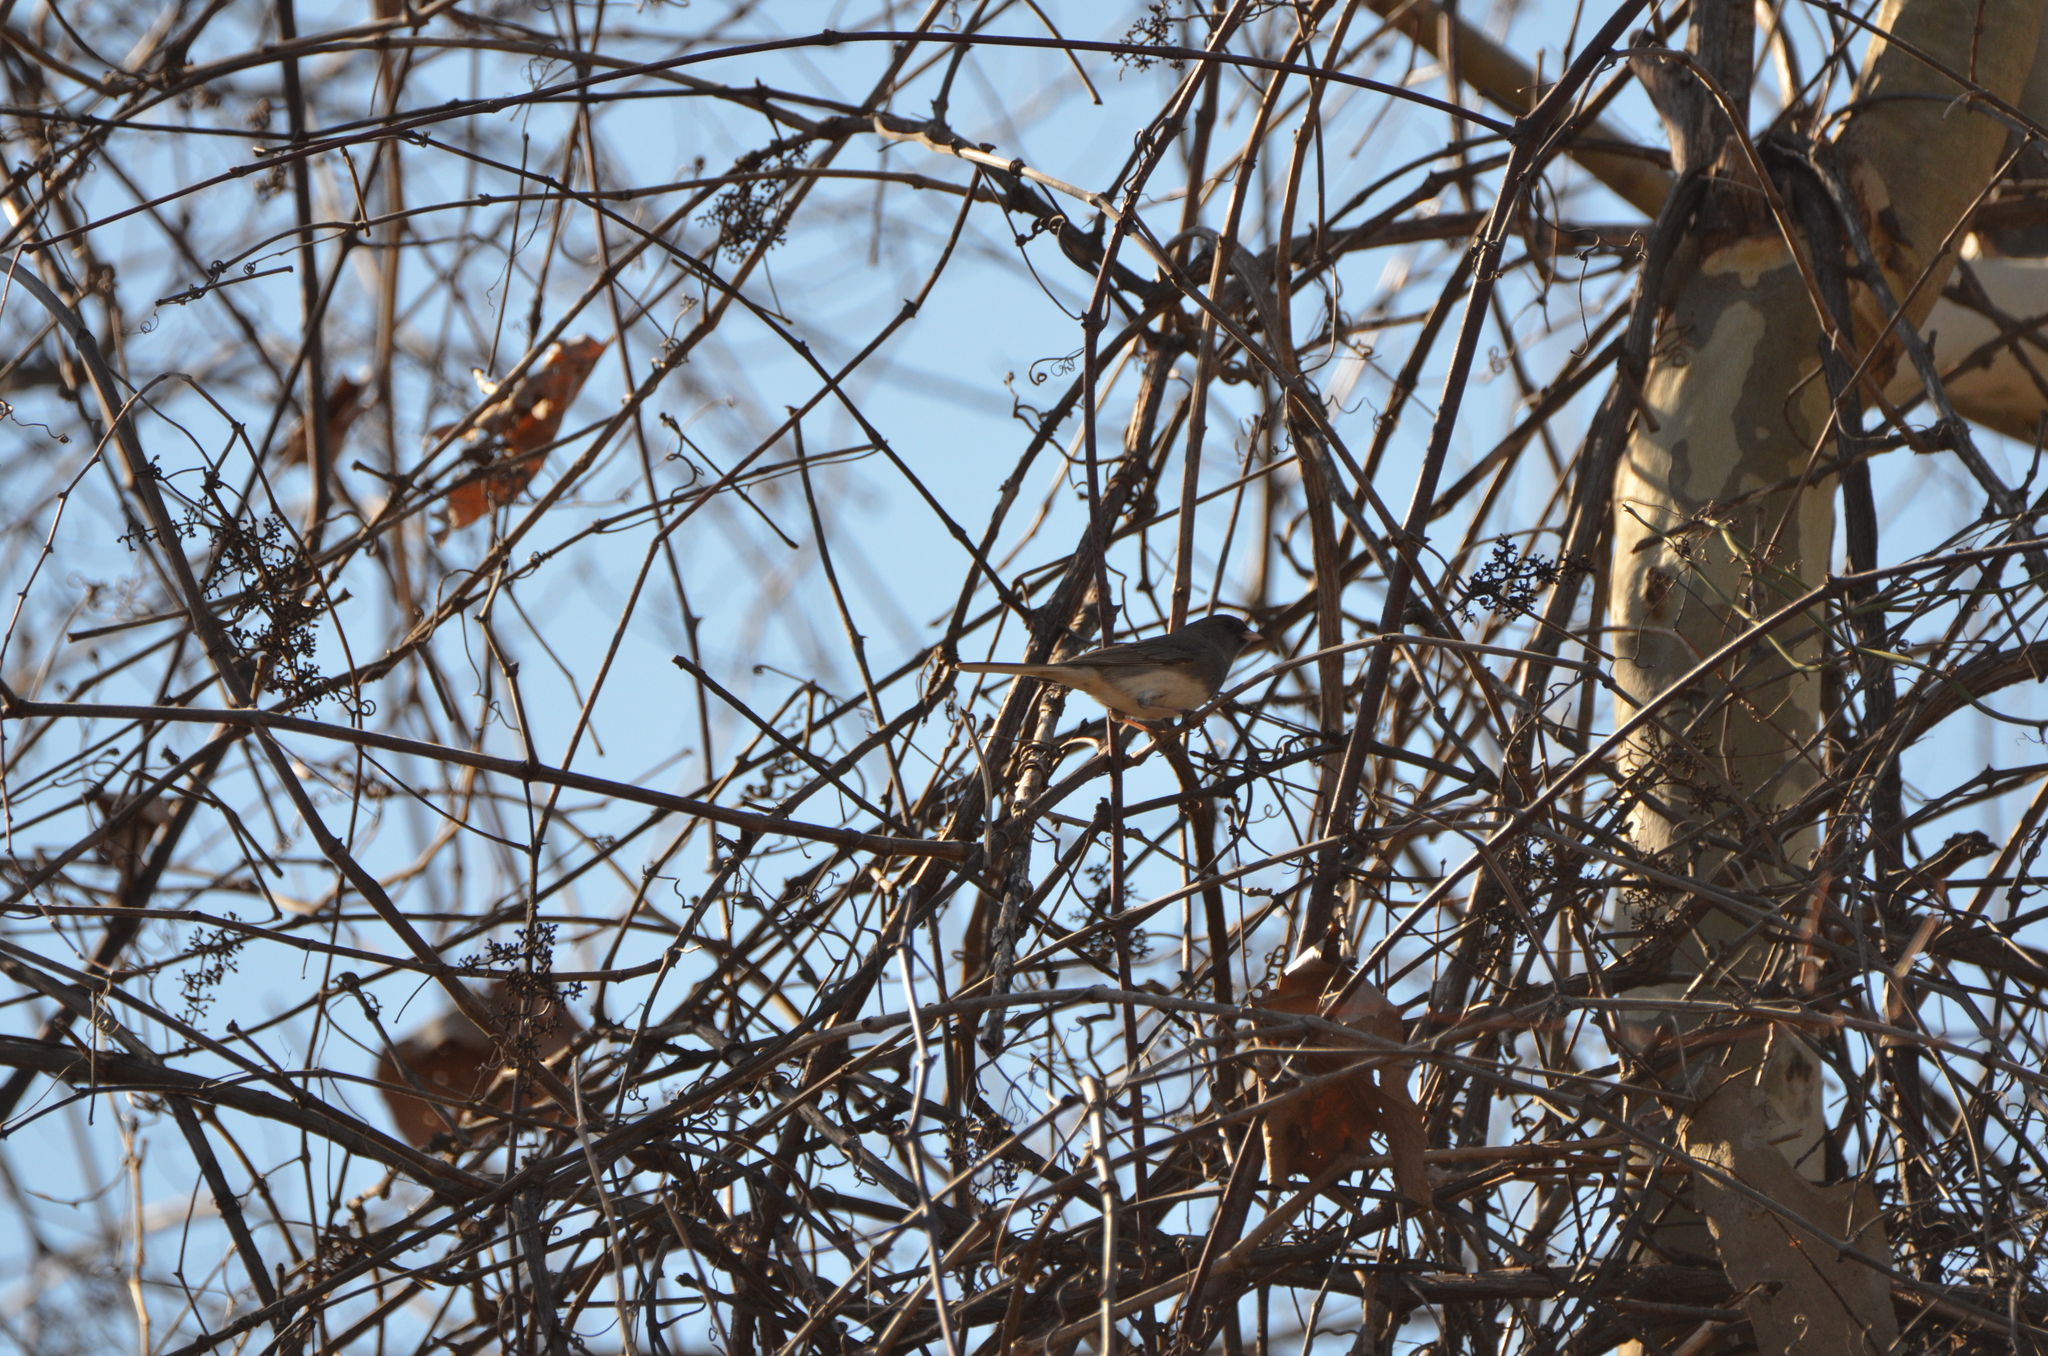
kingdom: Animalia
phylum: Chordata
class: Aves
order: Passeriformes
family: Passerellidae
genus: Junco
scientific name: Junco hyemalis
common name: Dark-eyed junco
